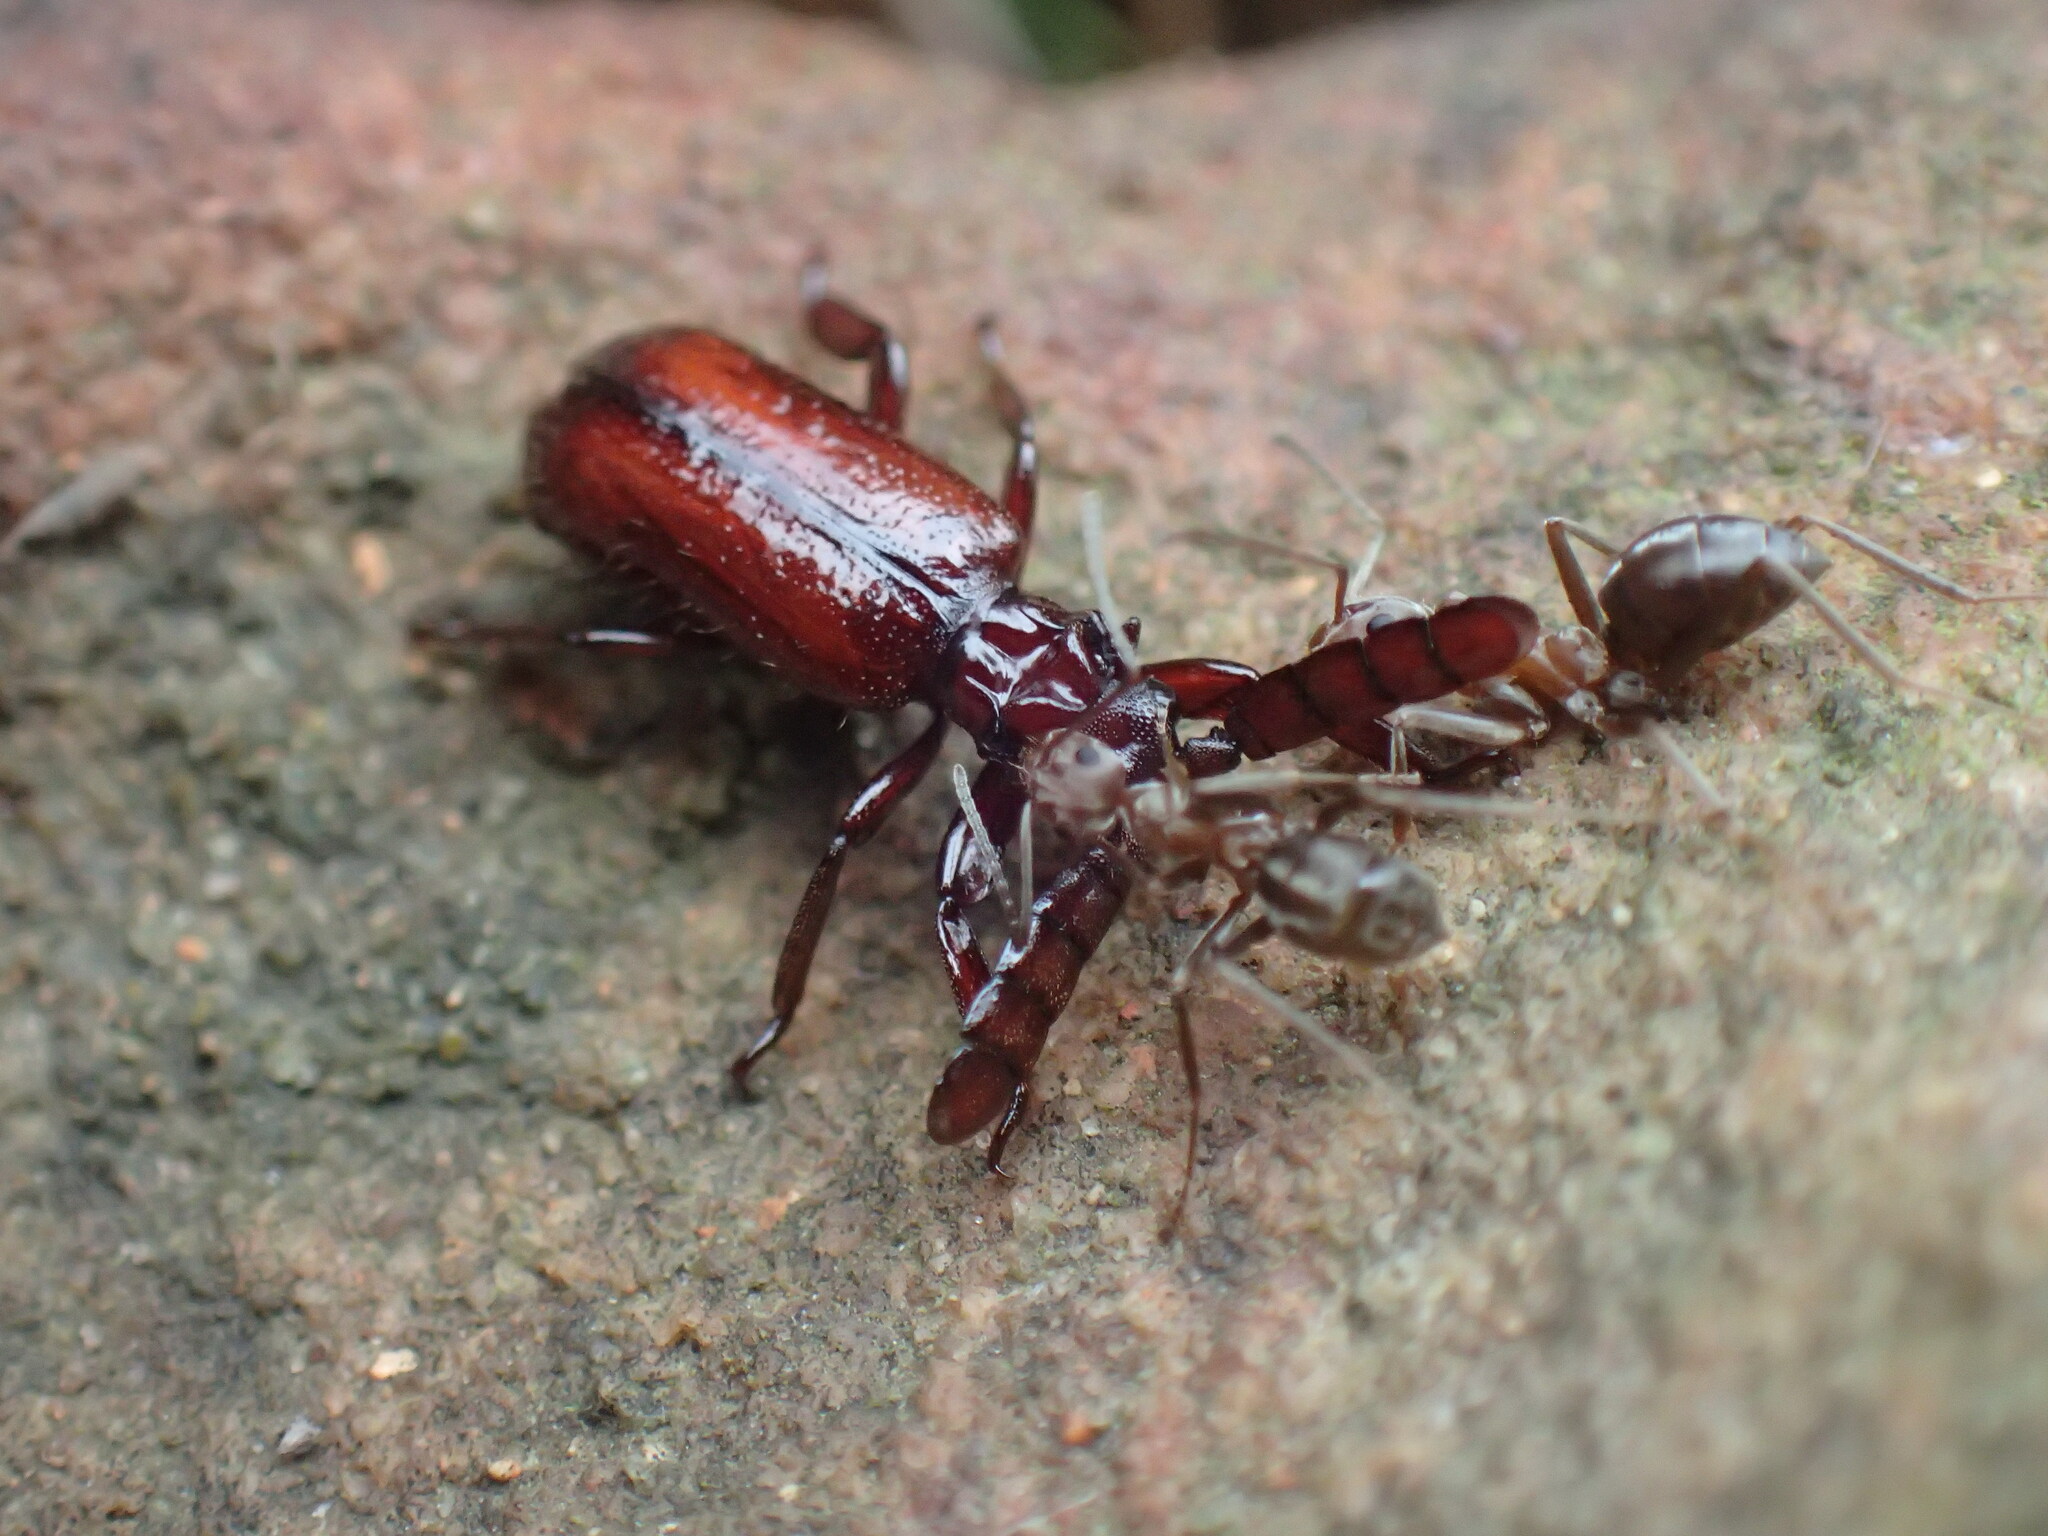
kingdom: Animalia
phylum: Arthropoda
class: Insecta
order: Hymenoptera
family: Formicidae
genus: Anoplolepis
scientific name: Anoplolepis custodiens
